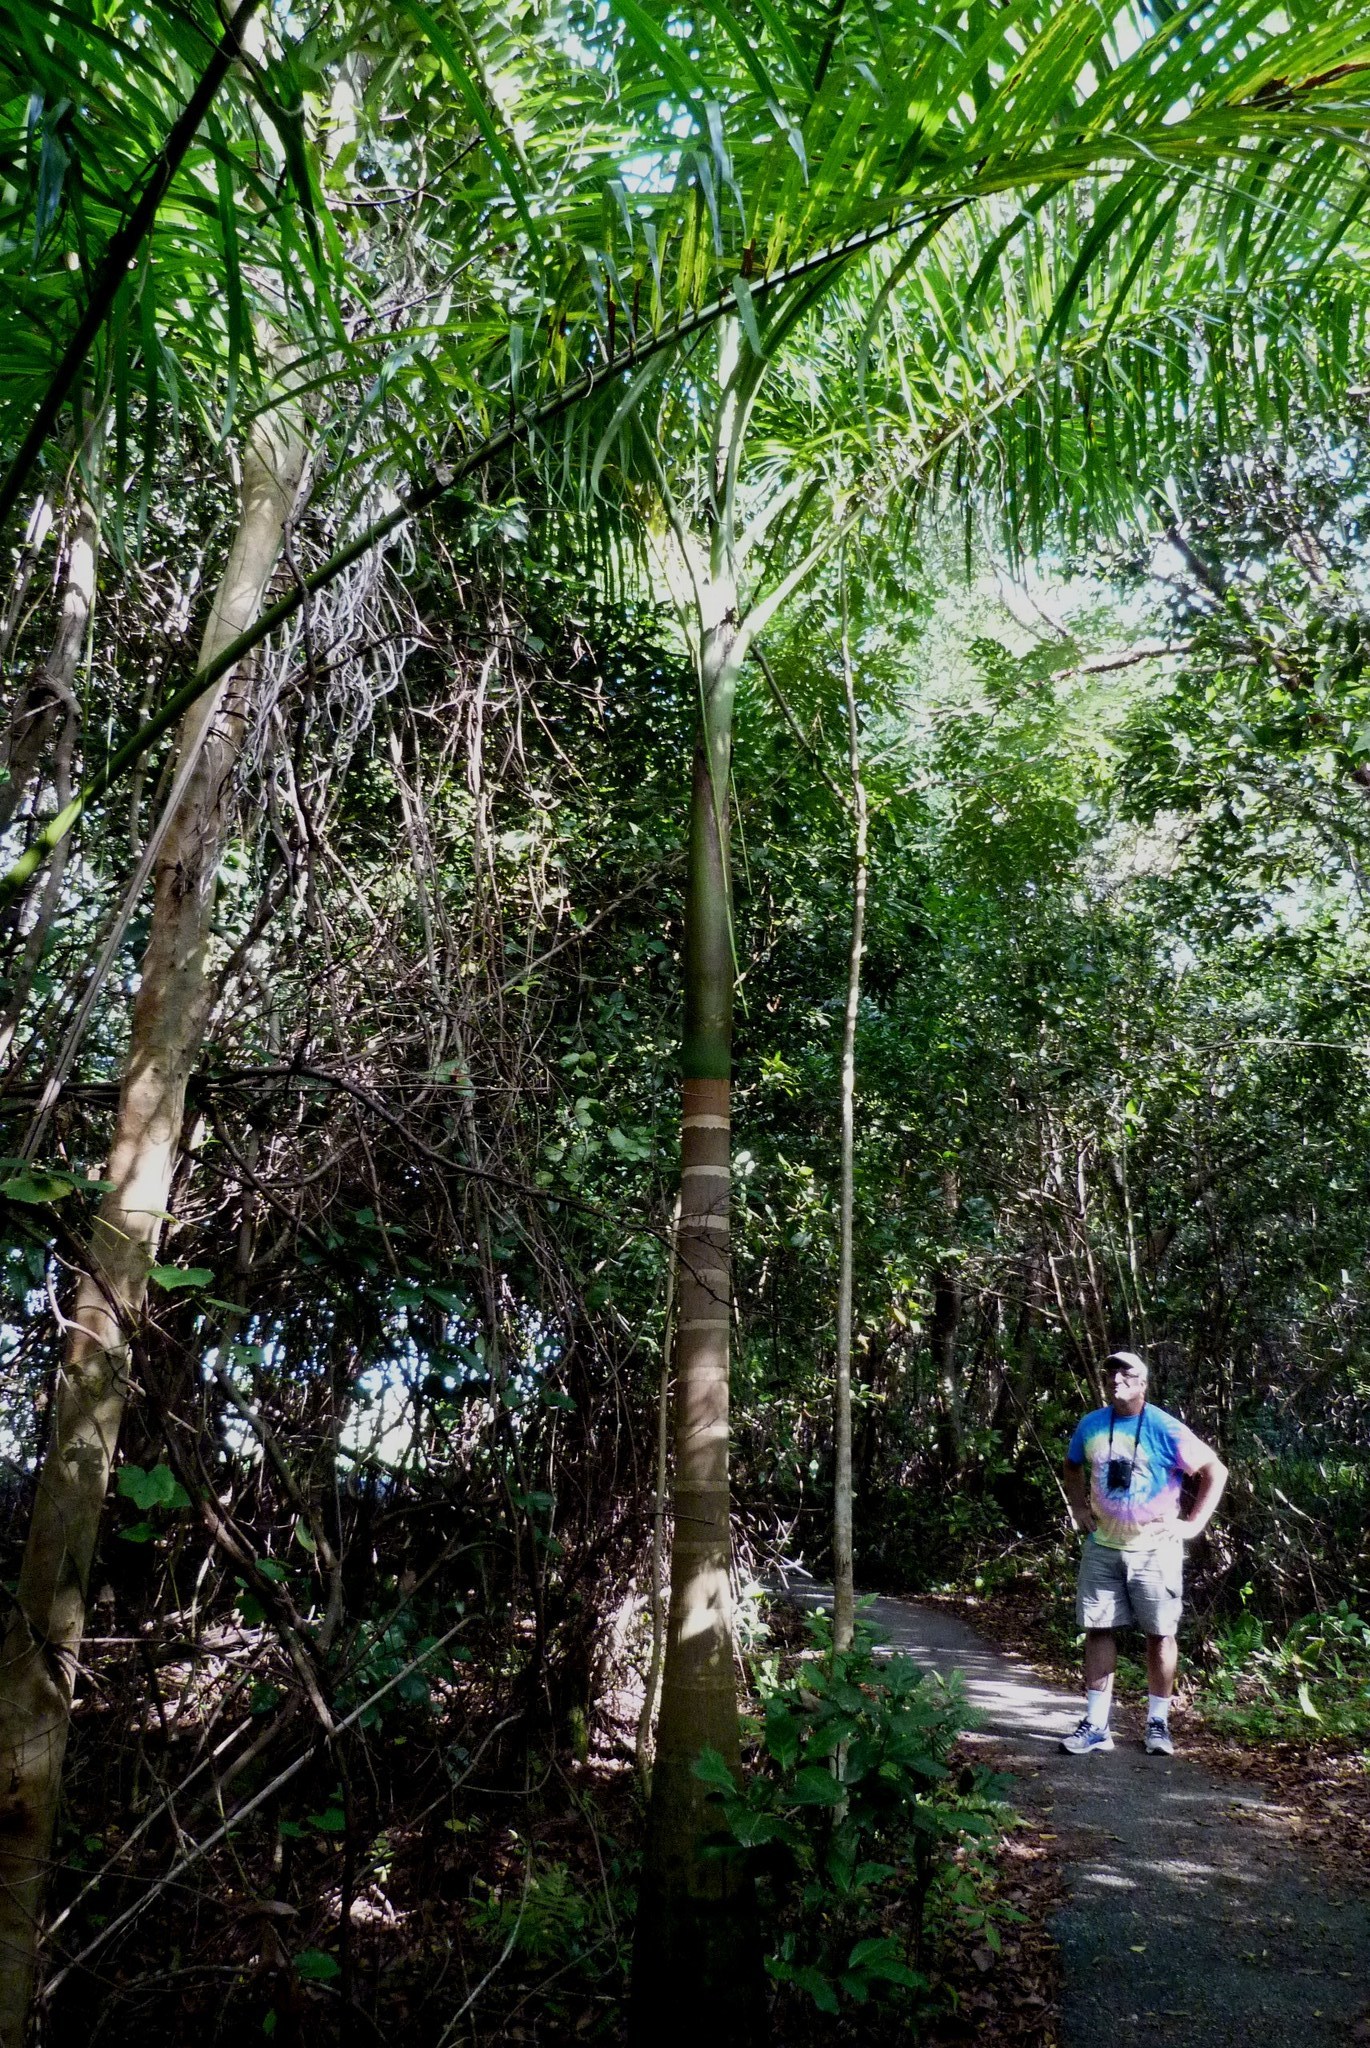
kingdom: Plantae
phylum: Tracheophyta
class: Liliopsida
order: Arecales
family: Arecaceae
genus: Roystonea
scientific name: Roystonea regia
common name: Florida royal palm
